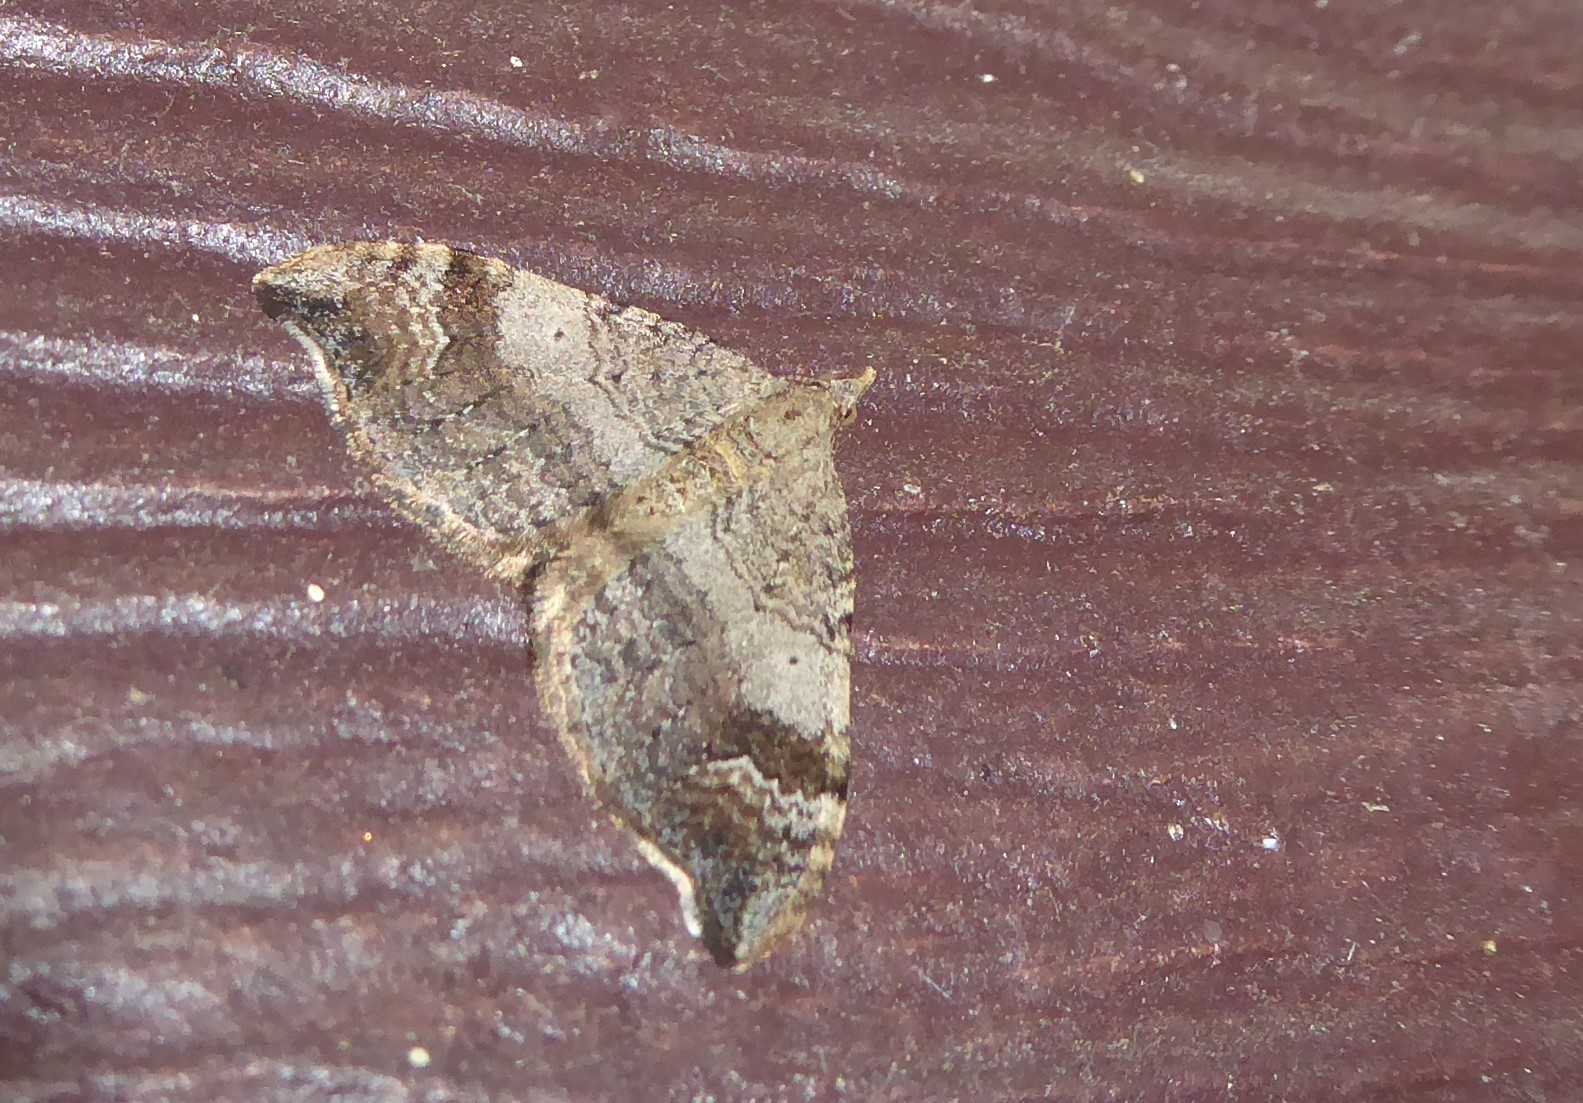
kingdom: Animalia
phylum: Arthropoda
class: Insecta
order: Lepidoptera
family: Geometridae
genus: Homodotis
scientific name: Homodotis falcata
